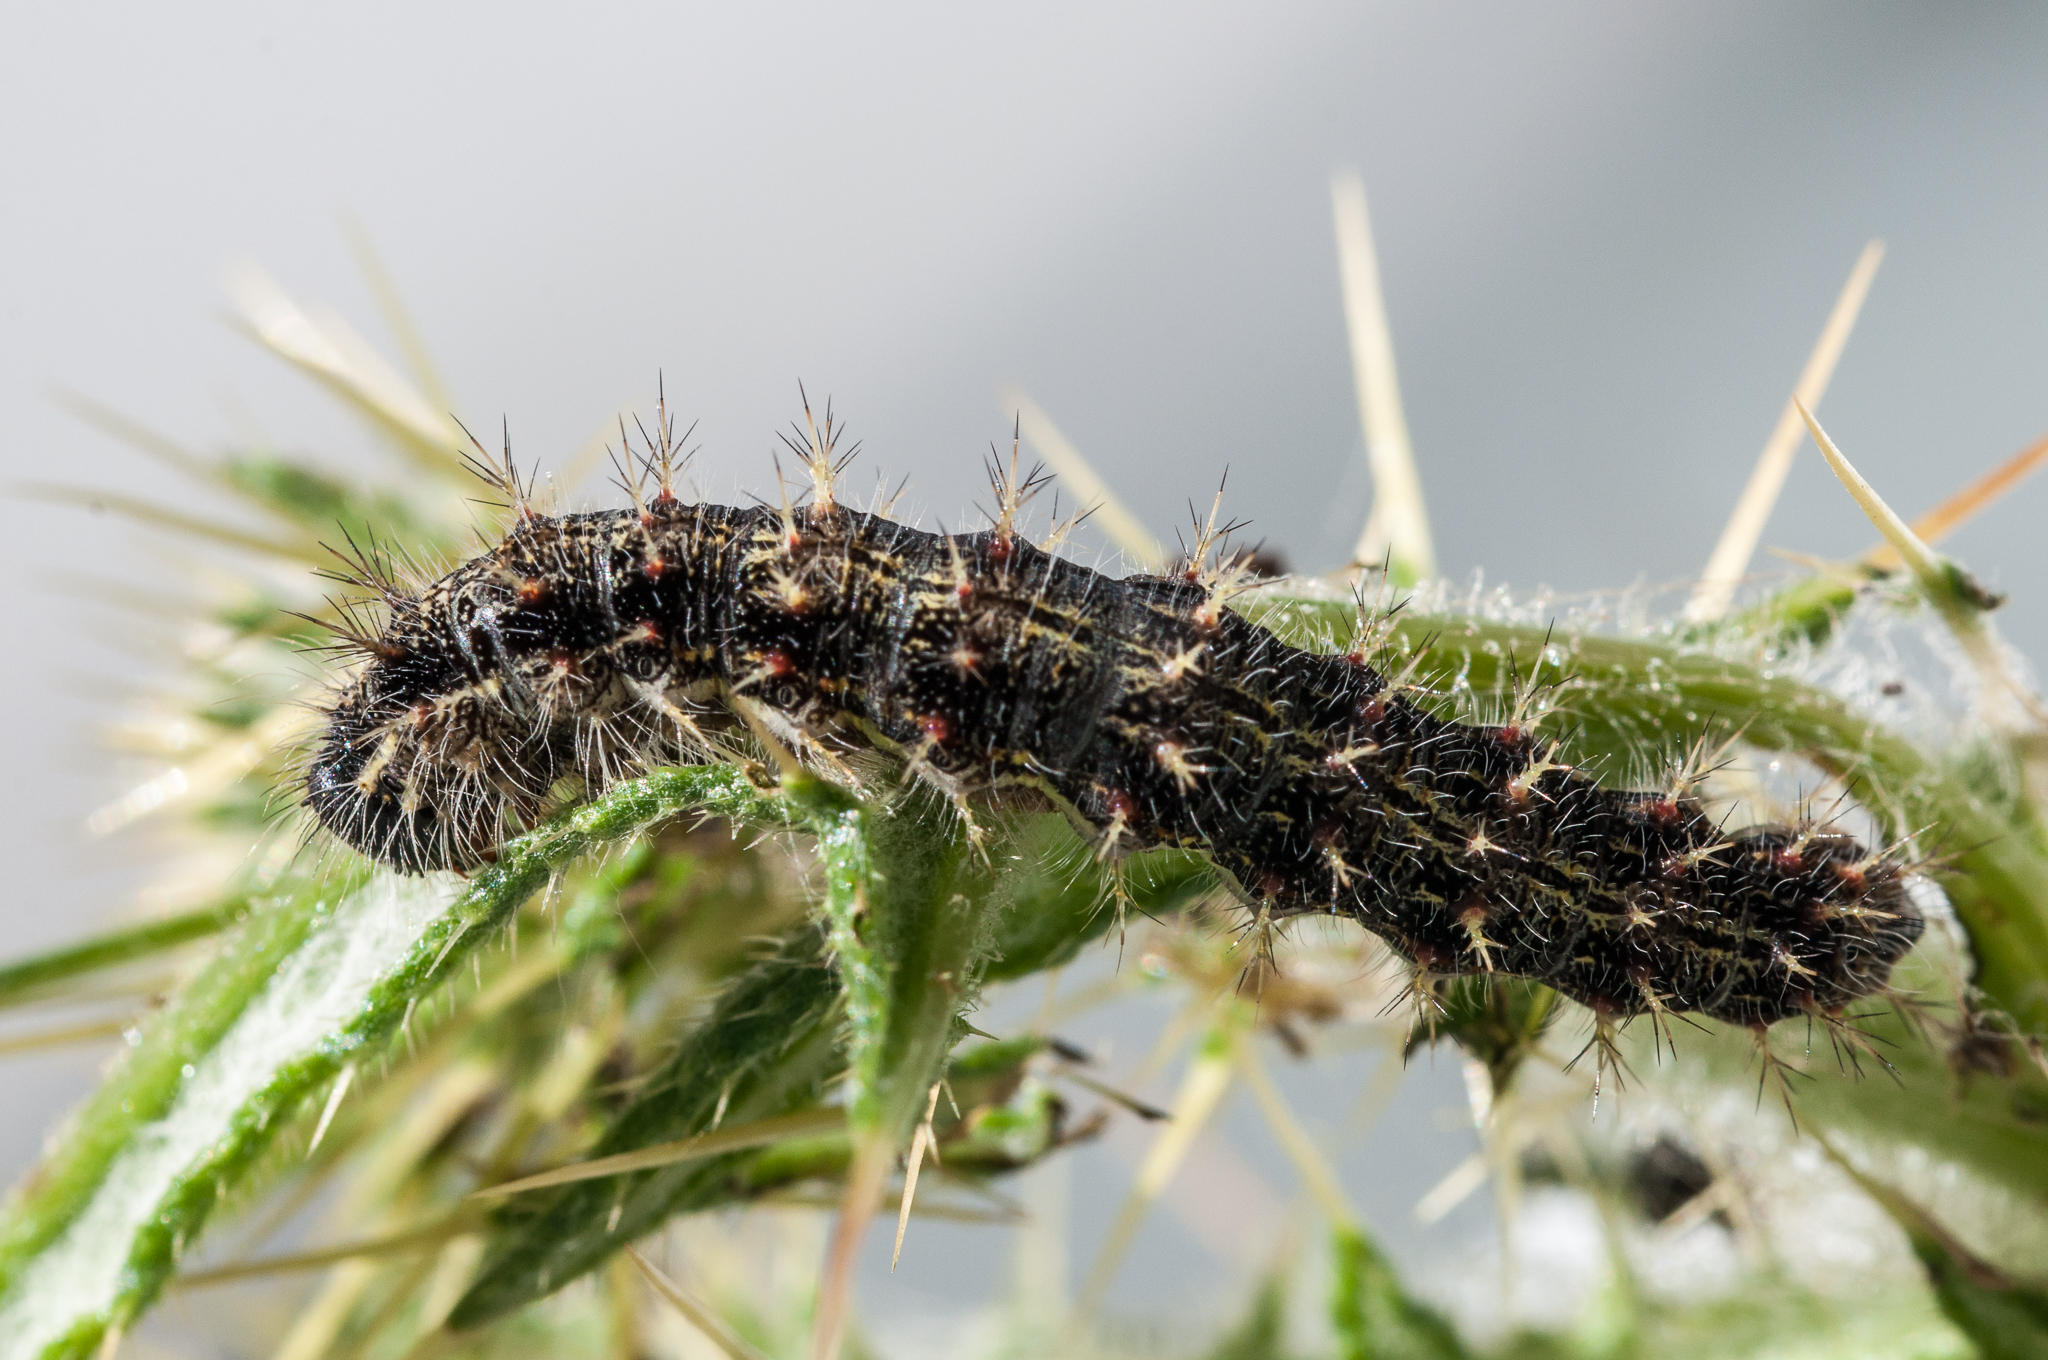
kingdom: Animalia
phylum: Arthropoda
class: Insecta
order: Lepidoptera
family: Nymphalidae
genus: Vanessa
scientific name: Vanessa cardui
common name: Painted lady
